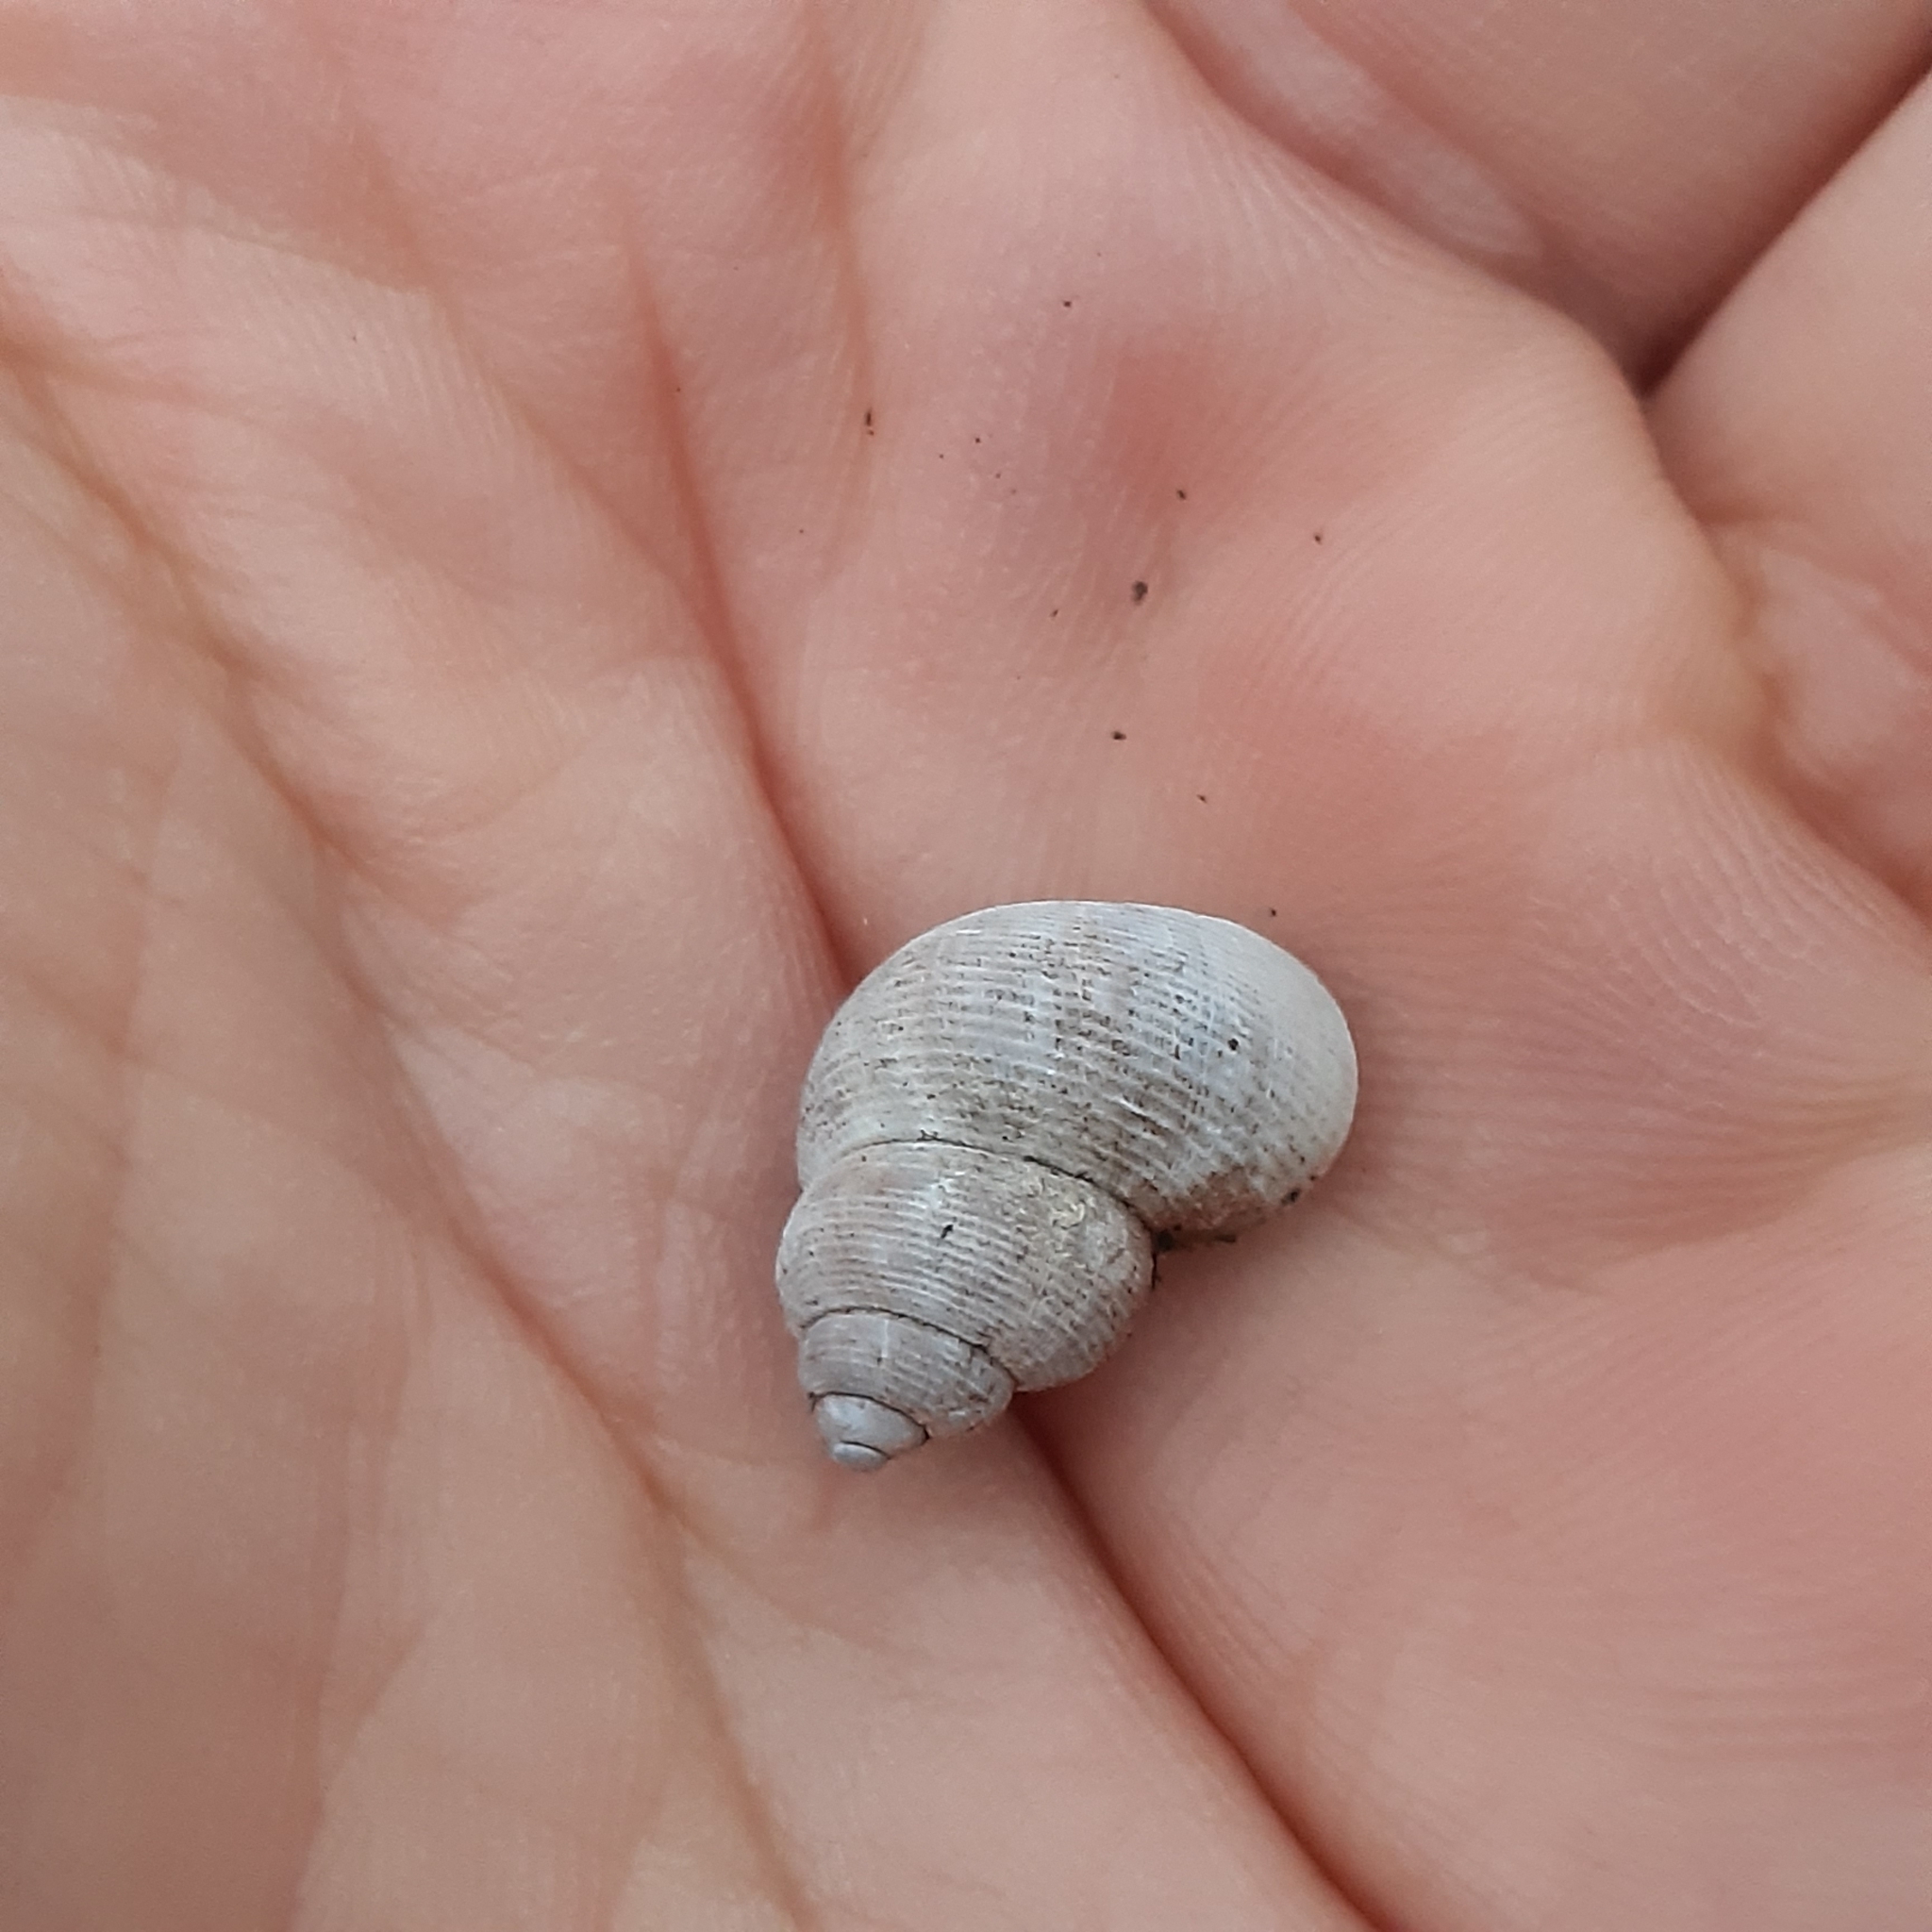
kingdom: Animalia
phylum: Mollusca
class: Gastropoda
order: Littorinimorpha
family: Pomatiidae
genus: Pomatias
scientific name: Pomatias elegans
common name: Red-mouthed snail
